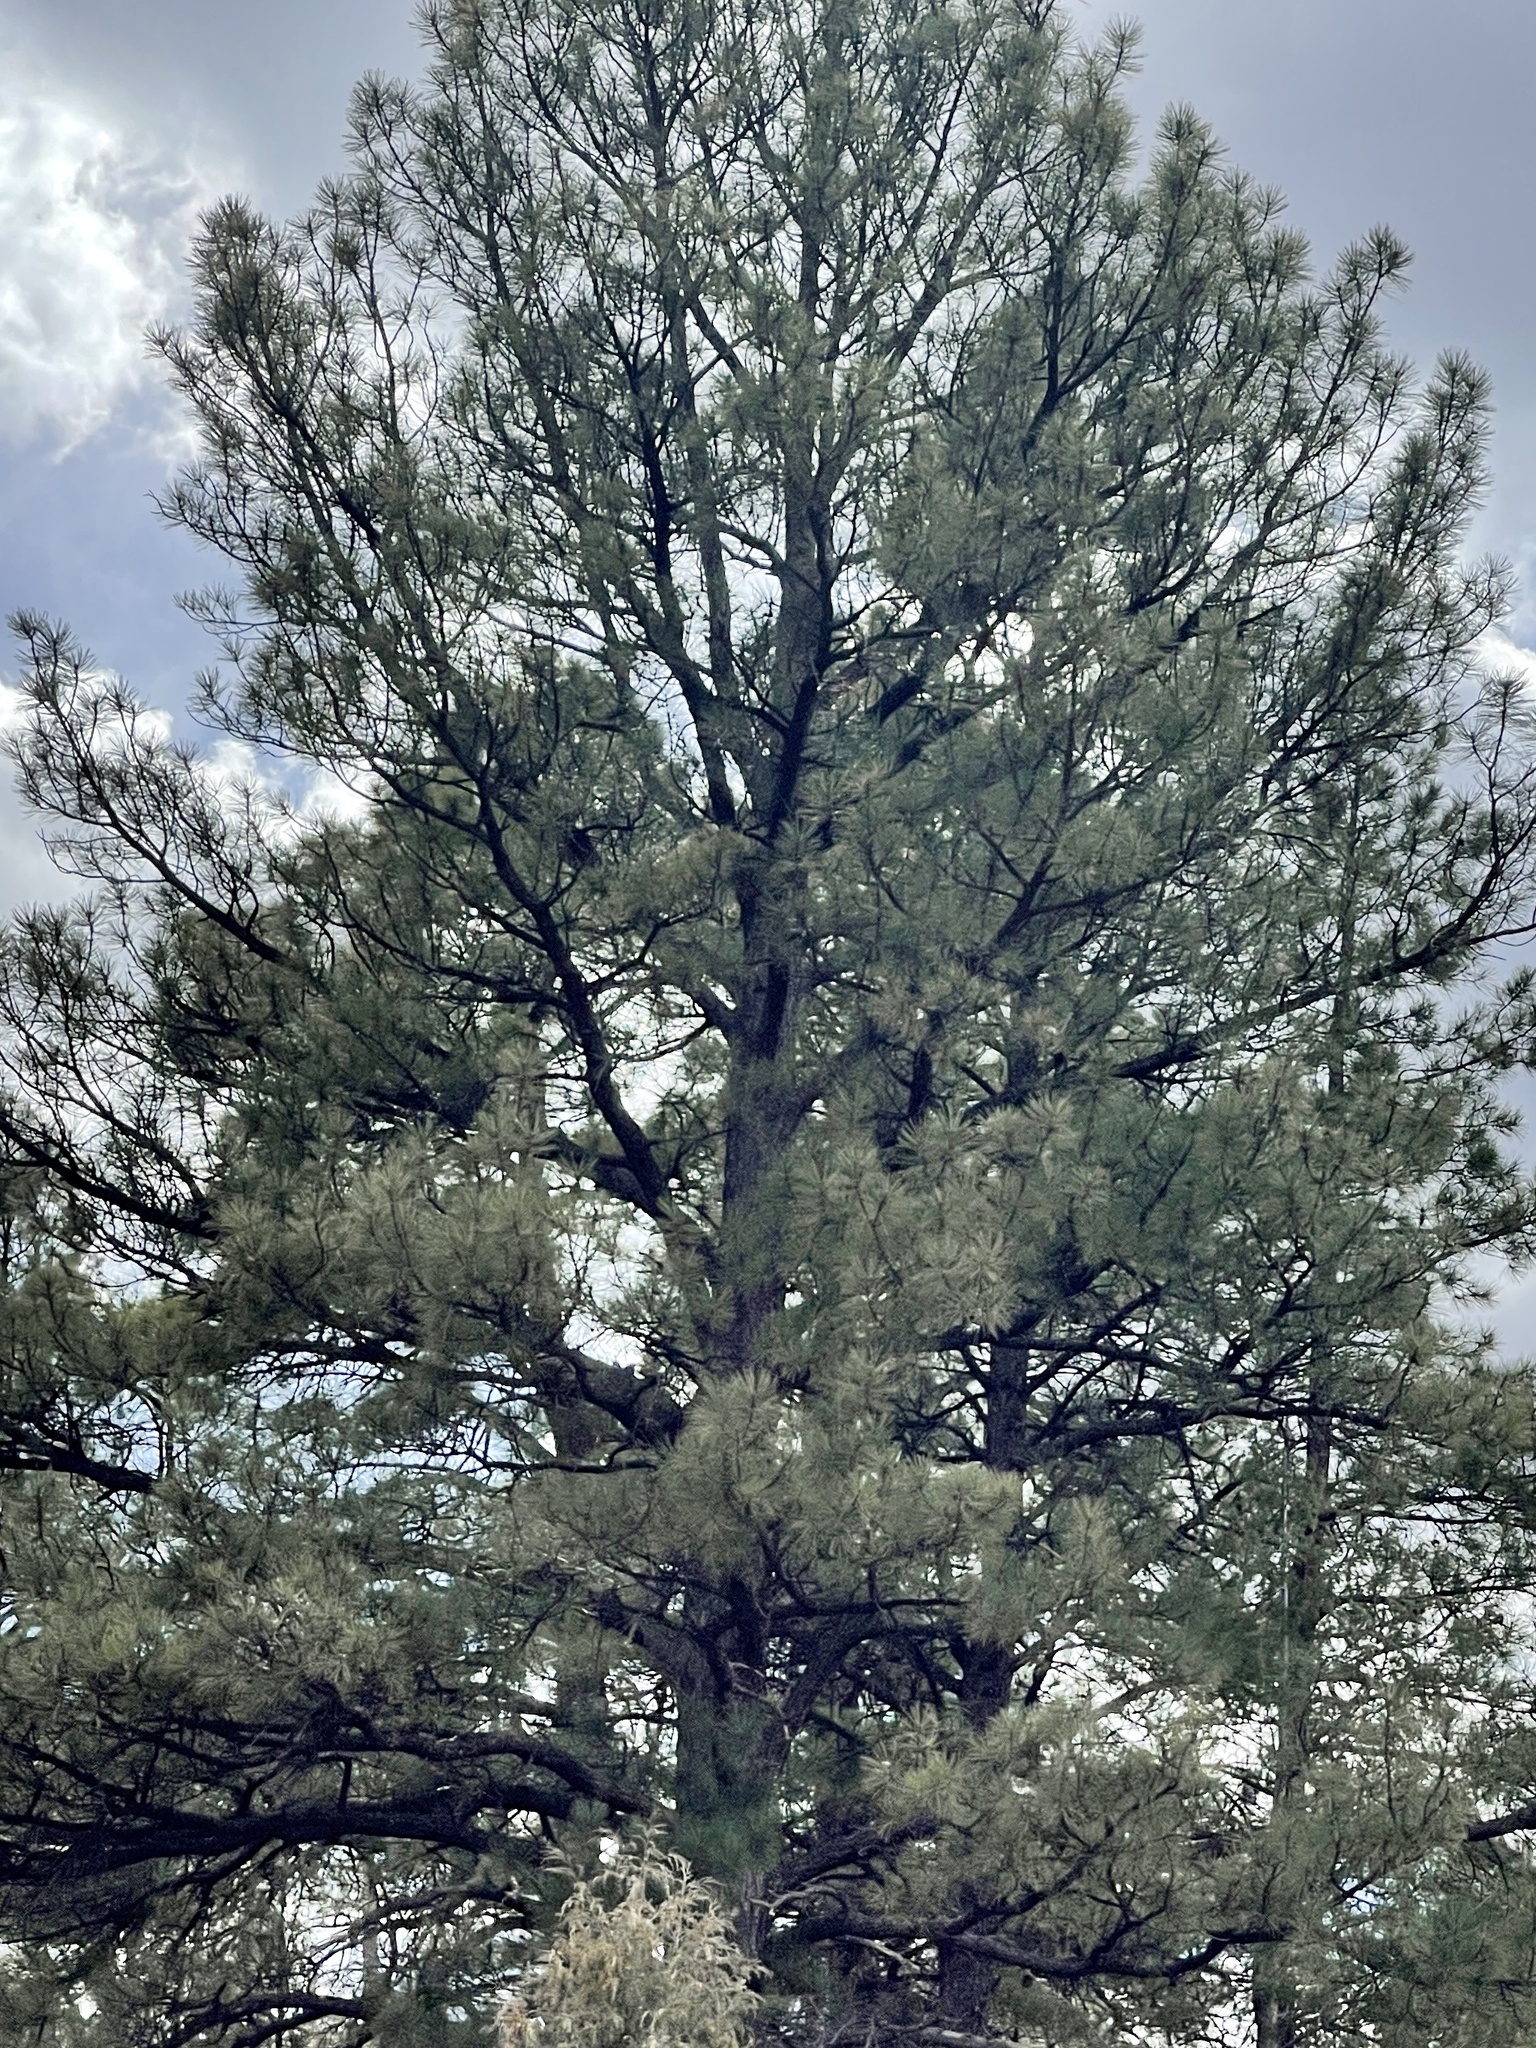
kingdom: Plantae
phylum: Tracheophyta
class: Pinopsida
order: Pinales
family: Pinaceae
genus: Pinus
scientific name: Pinus ponderosa
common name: Western yellow-pine
